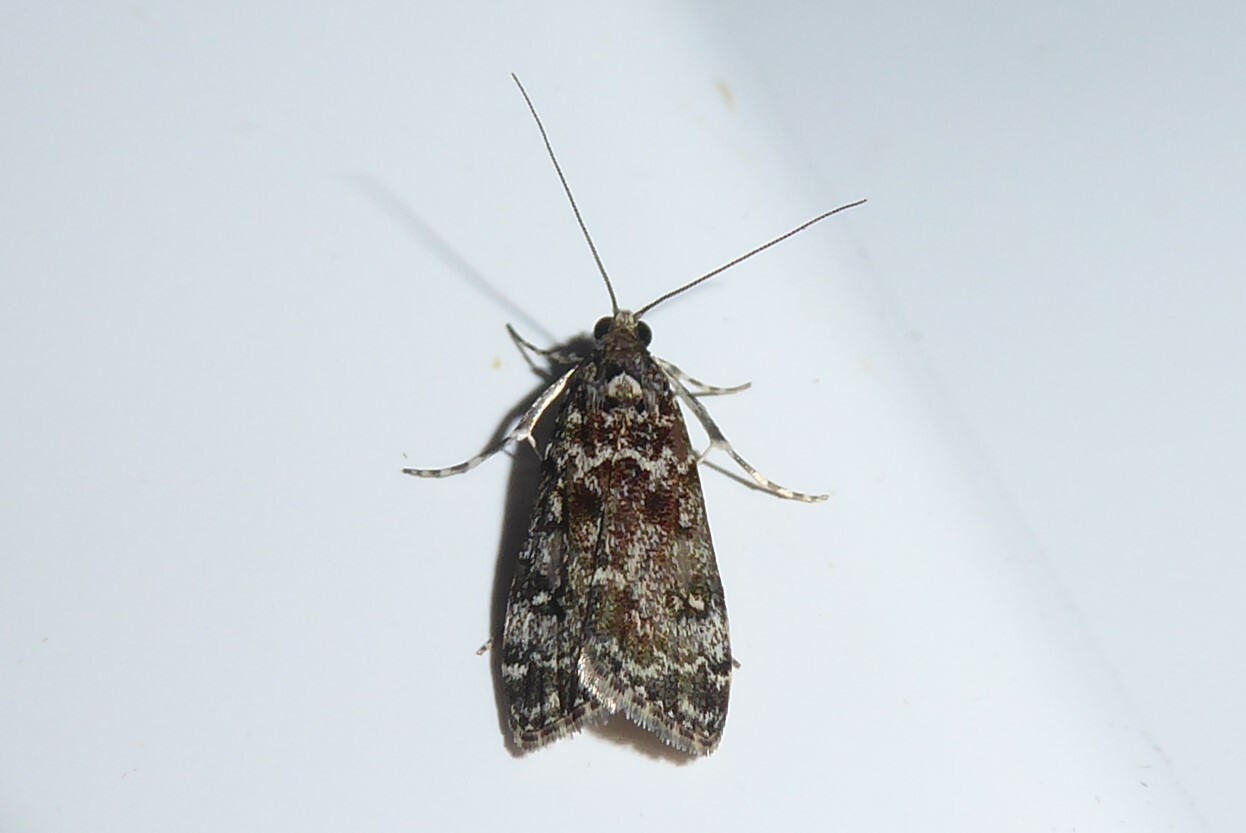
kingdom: Animalia
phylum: Arthropoda
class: Insecta
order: Lepidoptera
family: Crambidae
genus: Eudonia
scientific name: Eudonia philerga
